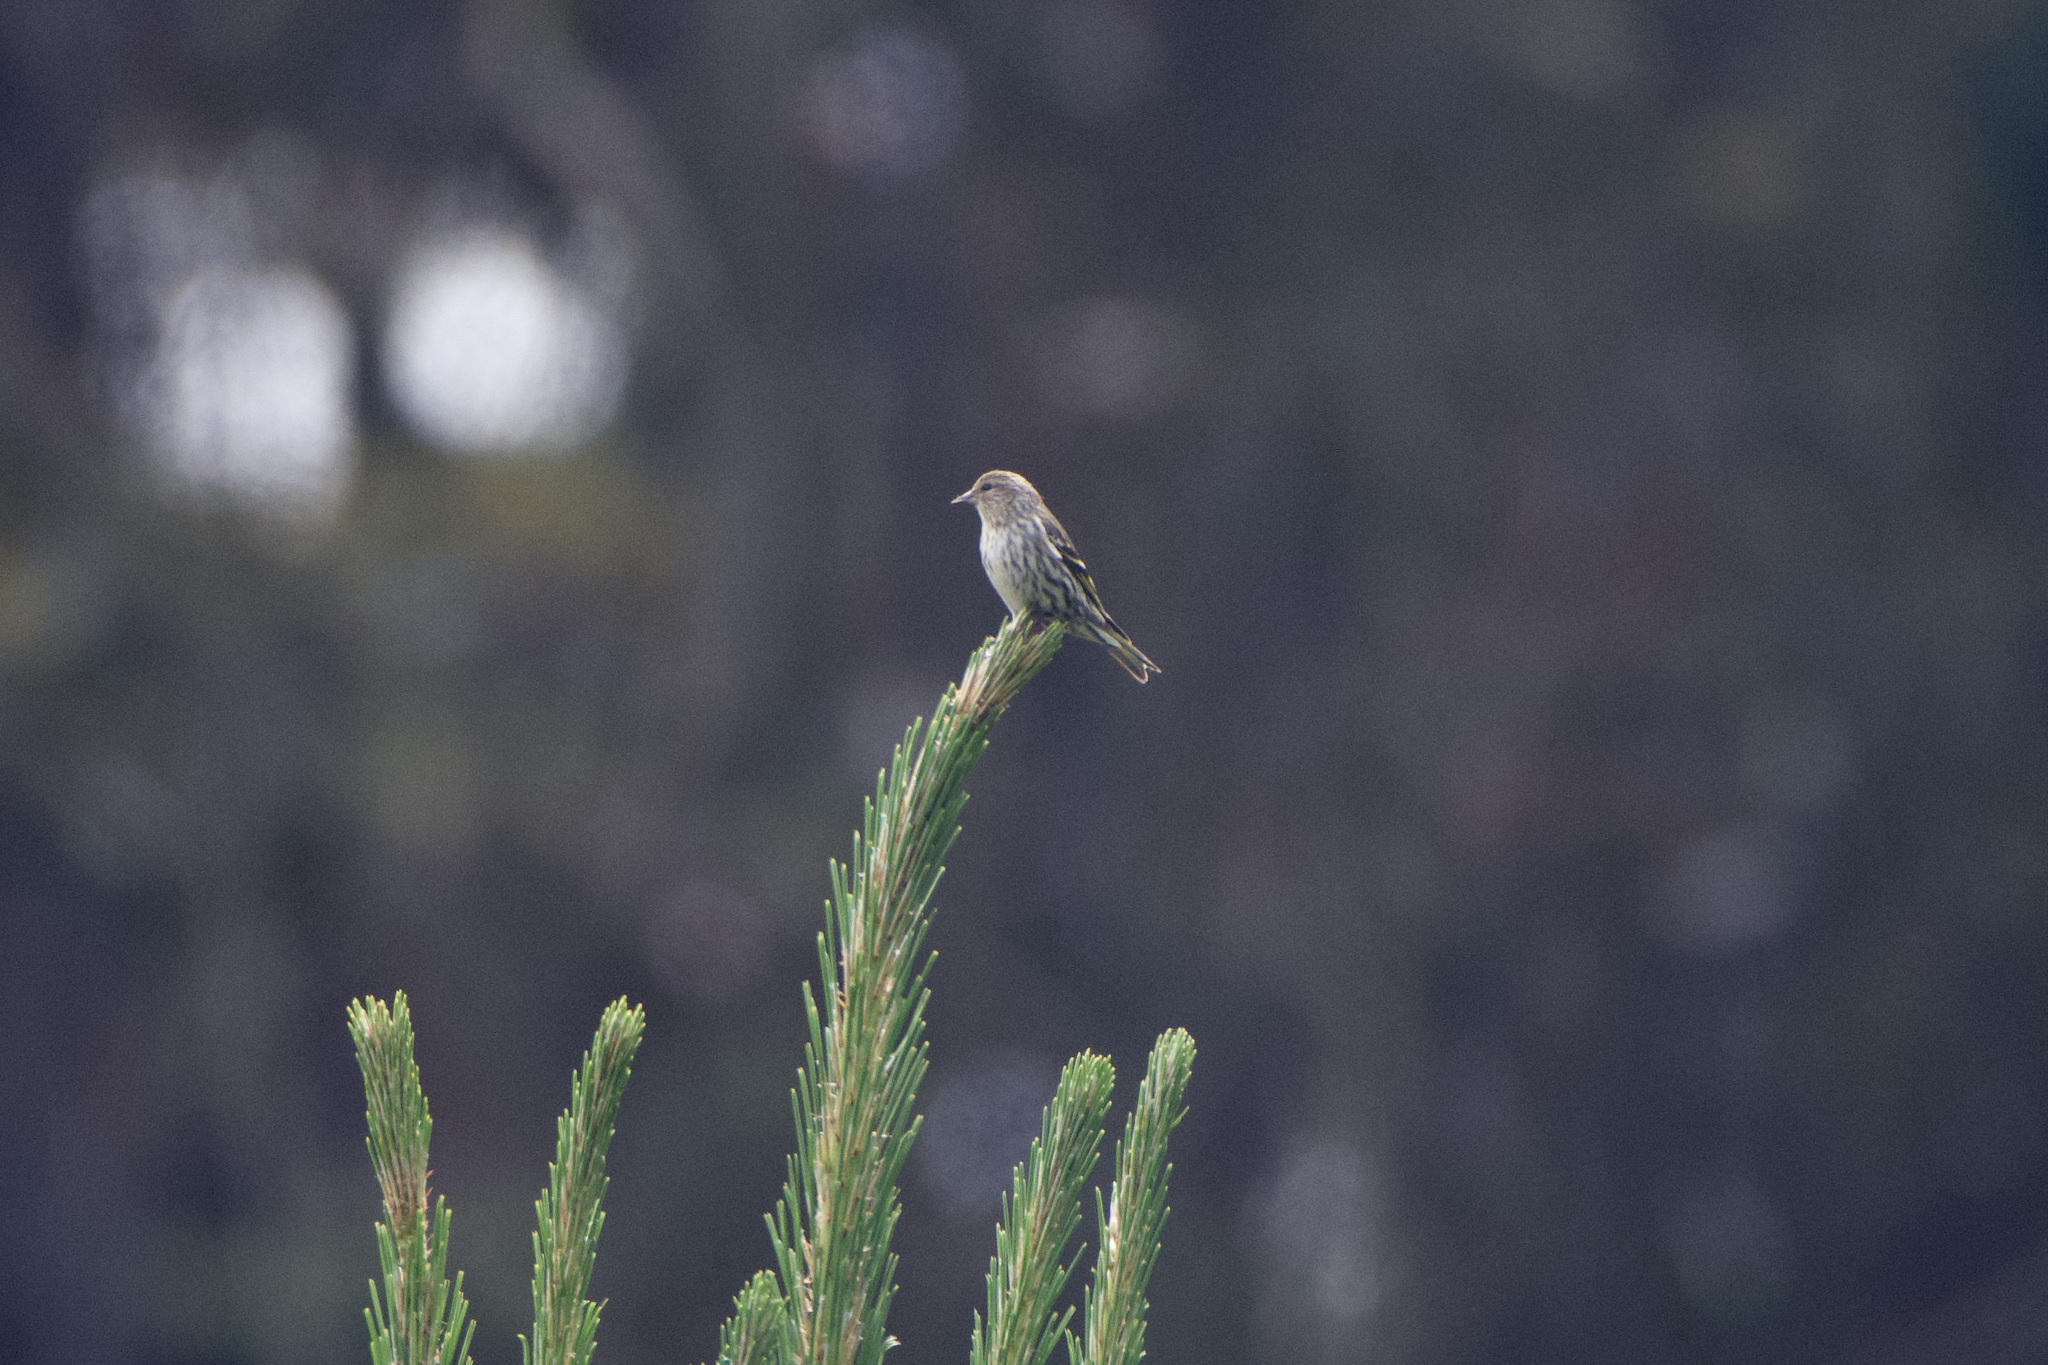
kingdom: Animalia
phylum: Chordata
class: Aves
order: Passeriformes
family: Fringillidae
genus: Spinus
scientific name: Spinus pinus
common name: Pine siskin
